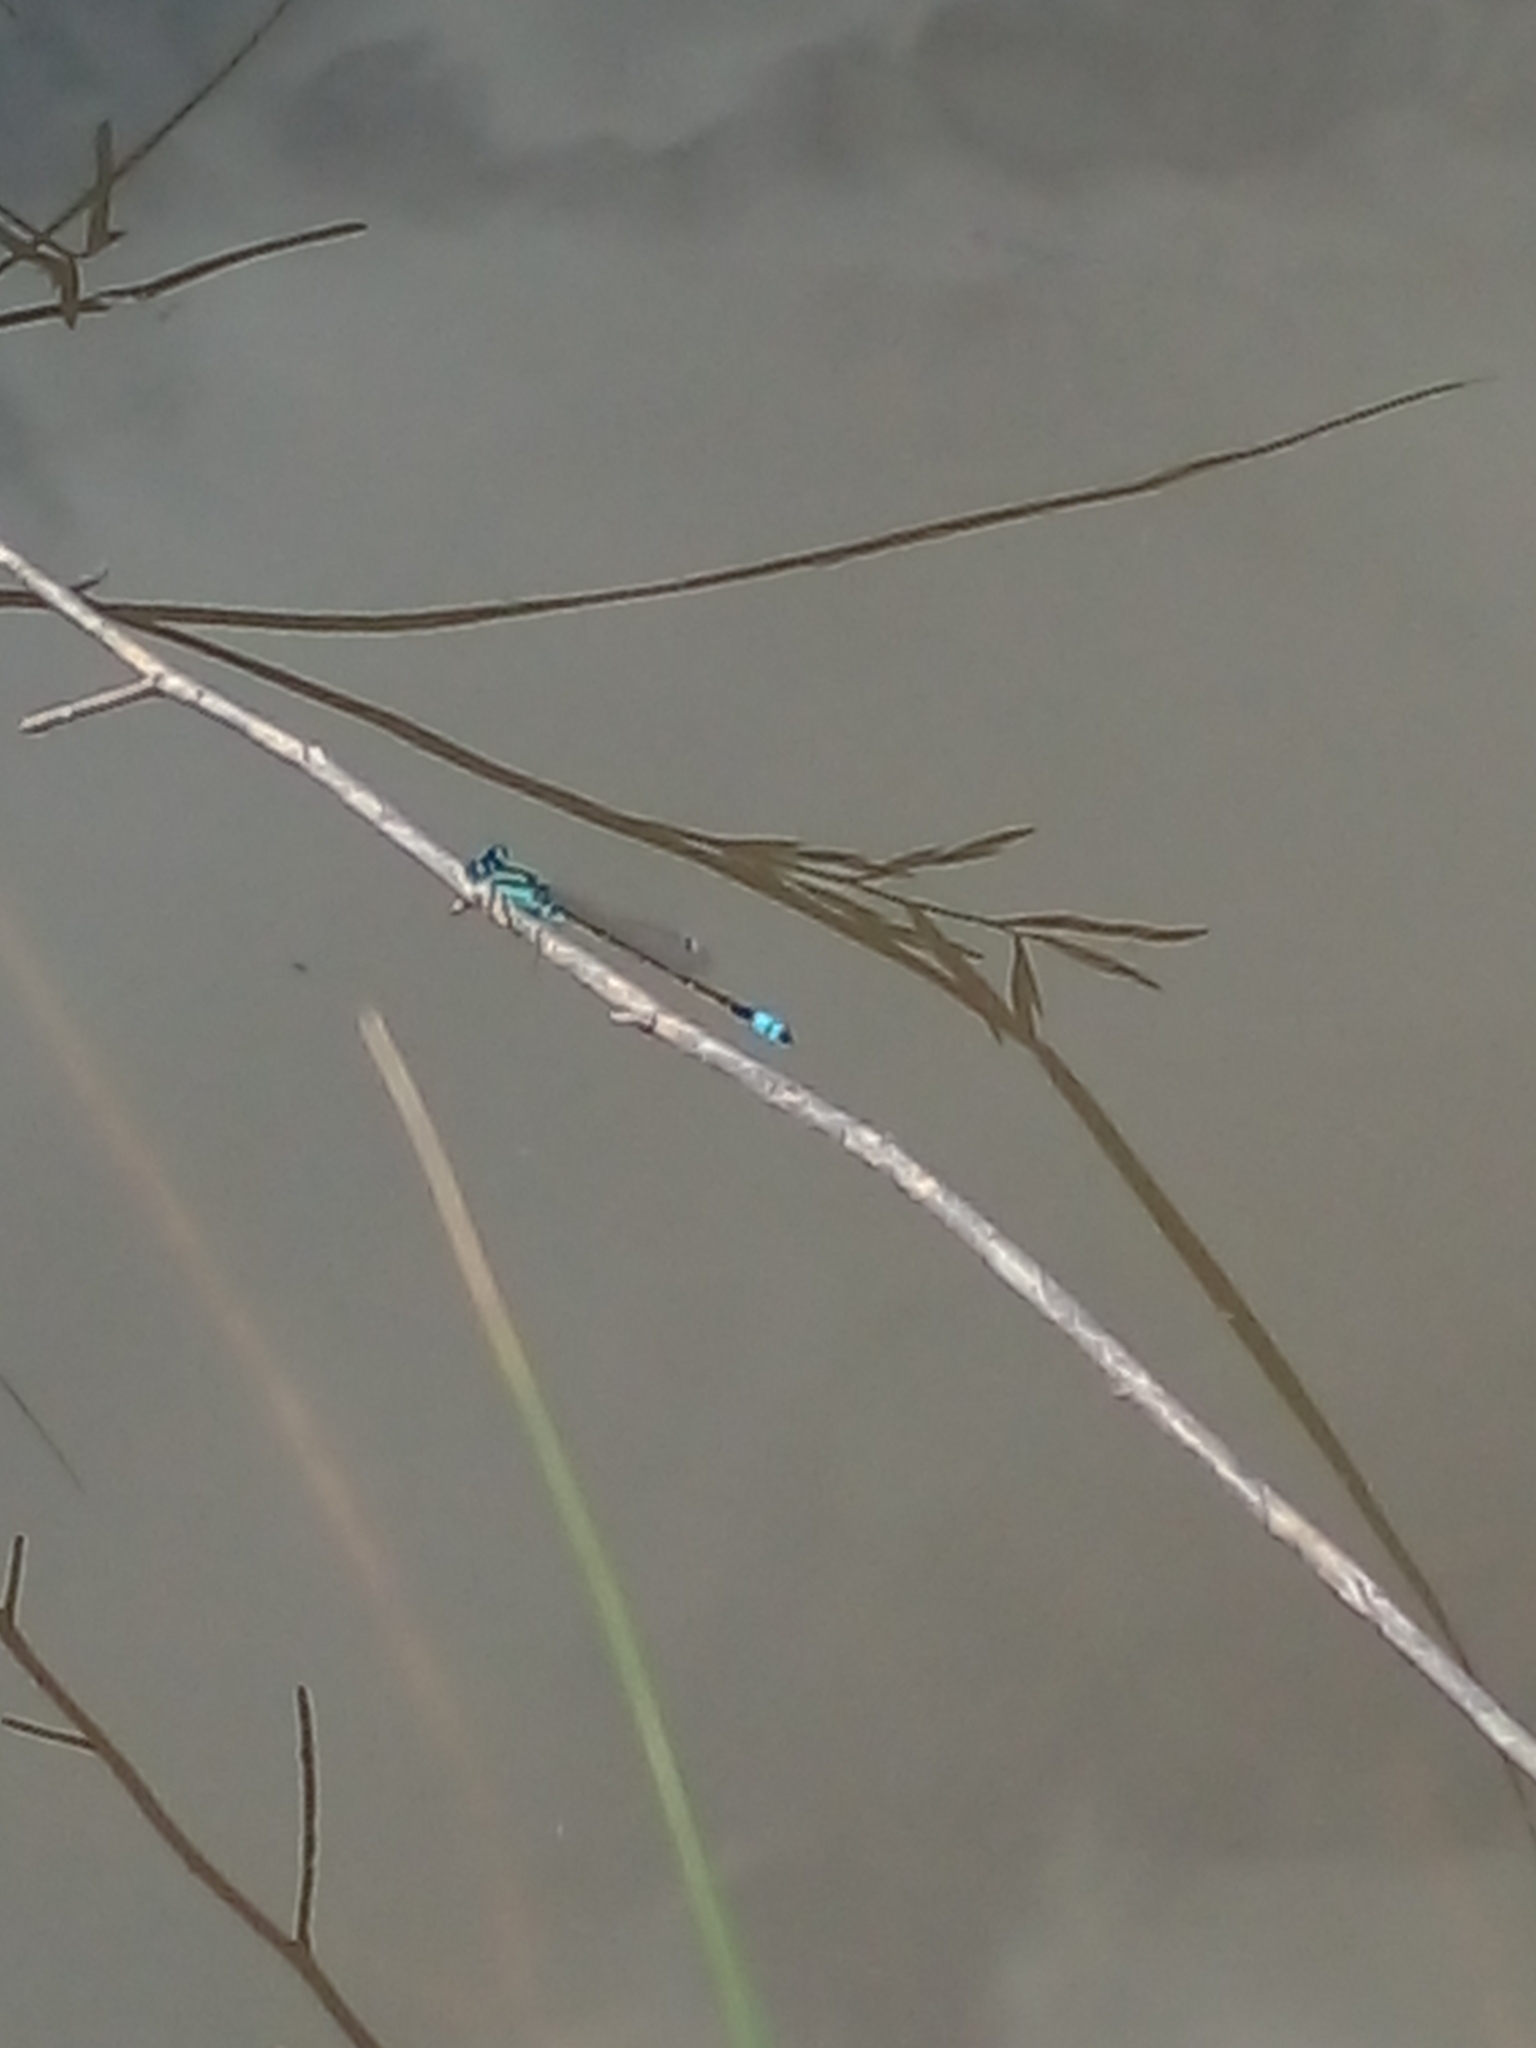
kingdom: Animalia
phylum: Arthropoda
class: Insecta
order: Odonata
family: Coenagrionidae
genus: Ischnura
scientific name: Ischnura fluviatilis
